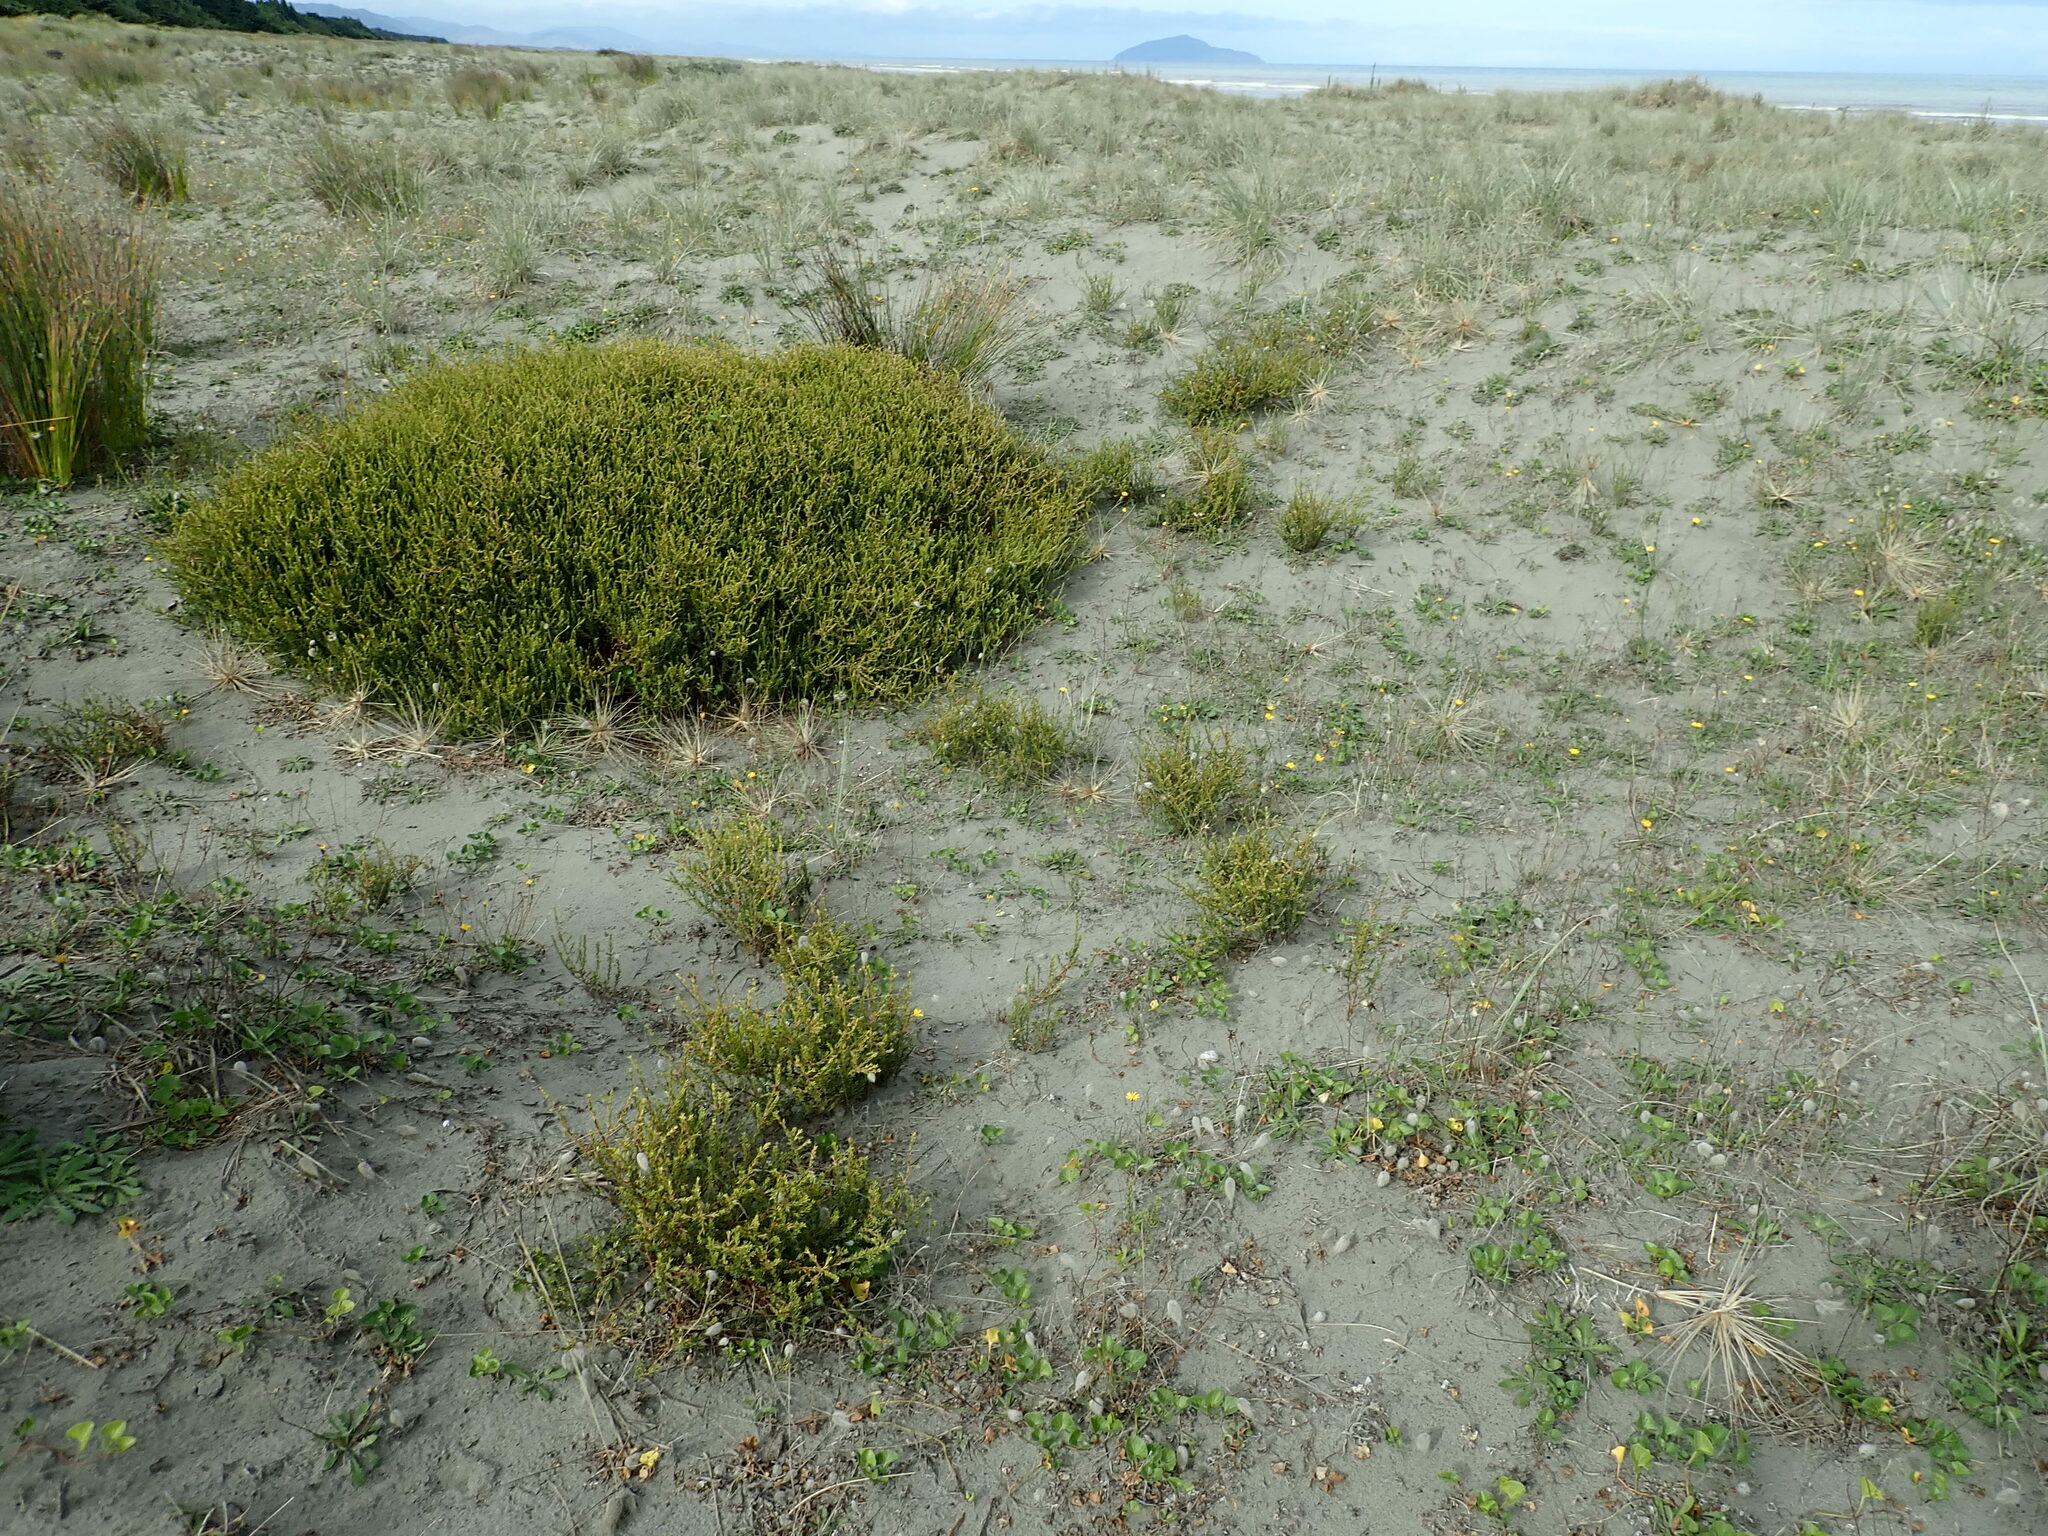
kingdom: Plantae
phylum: Tracheophyta
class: Magnoliopsida
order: Gentianales
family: Rubiaceae
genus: Coprosma
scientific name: Coprosma acerosa
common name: Sand coprosma
